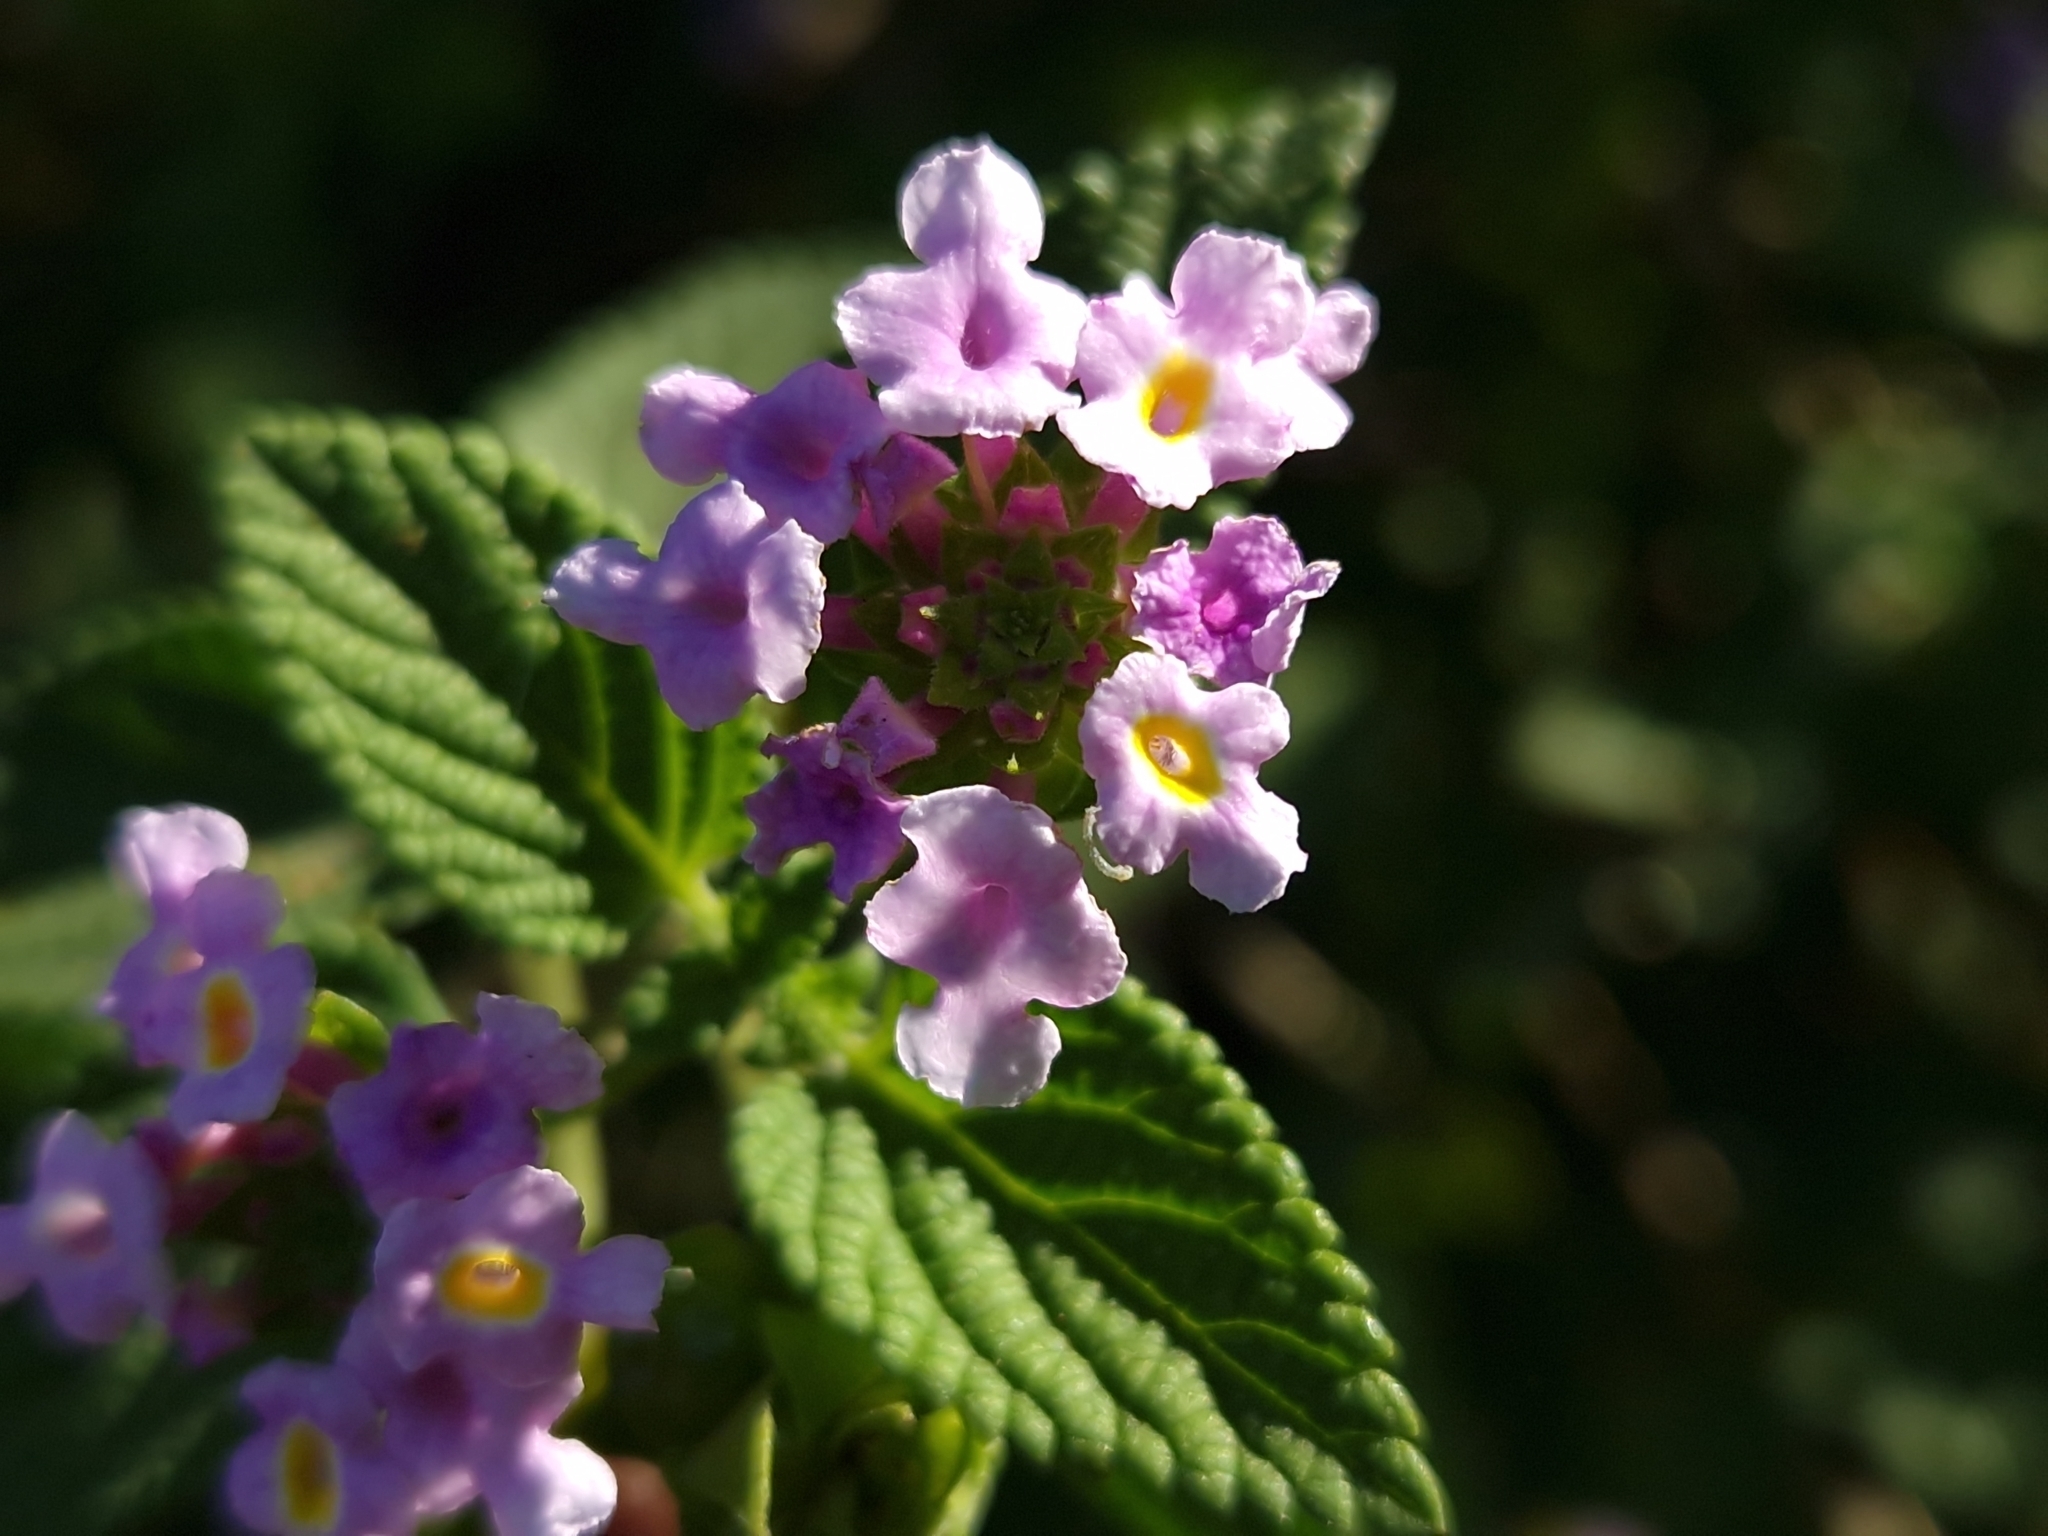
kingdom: Plantae
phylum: Tracheophyta
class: Magnoliopsida
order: Lamiales
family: Verbenaceae
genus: Lantana
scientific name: Lantana megapotamica
